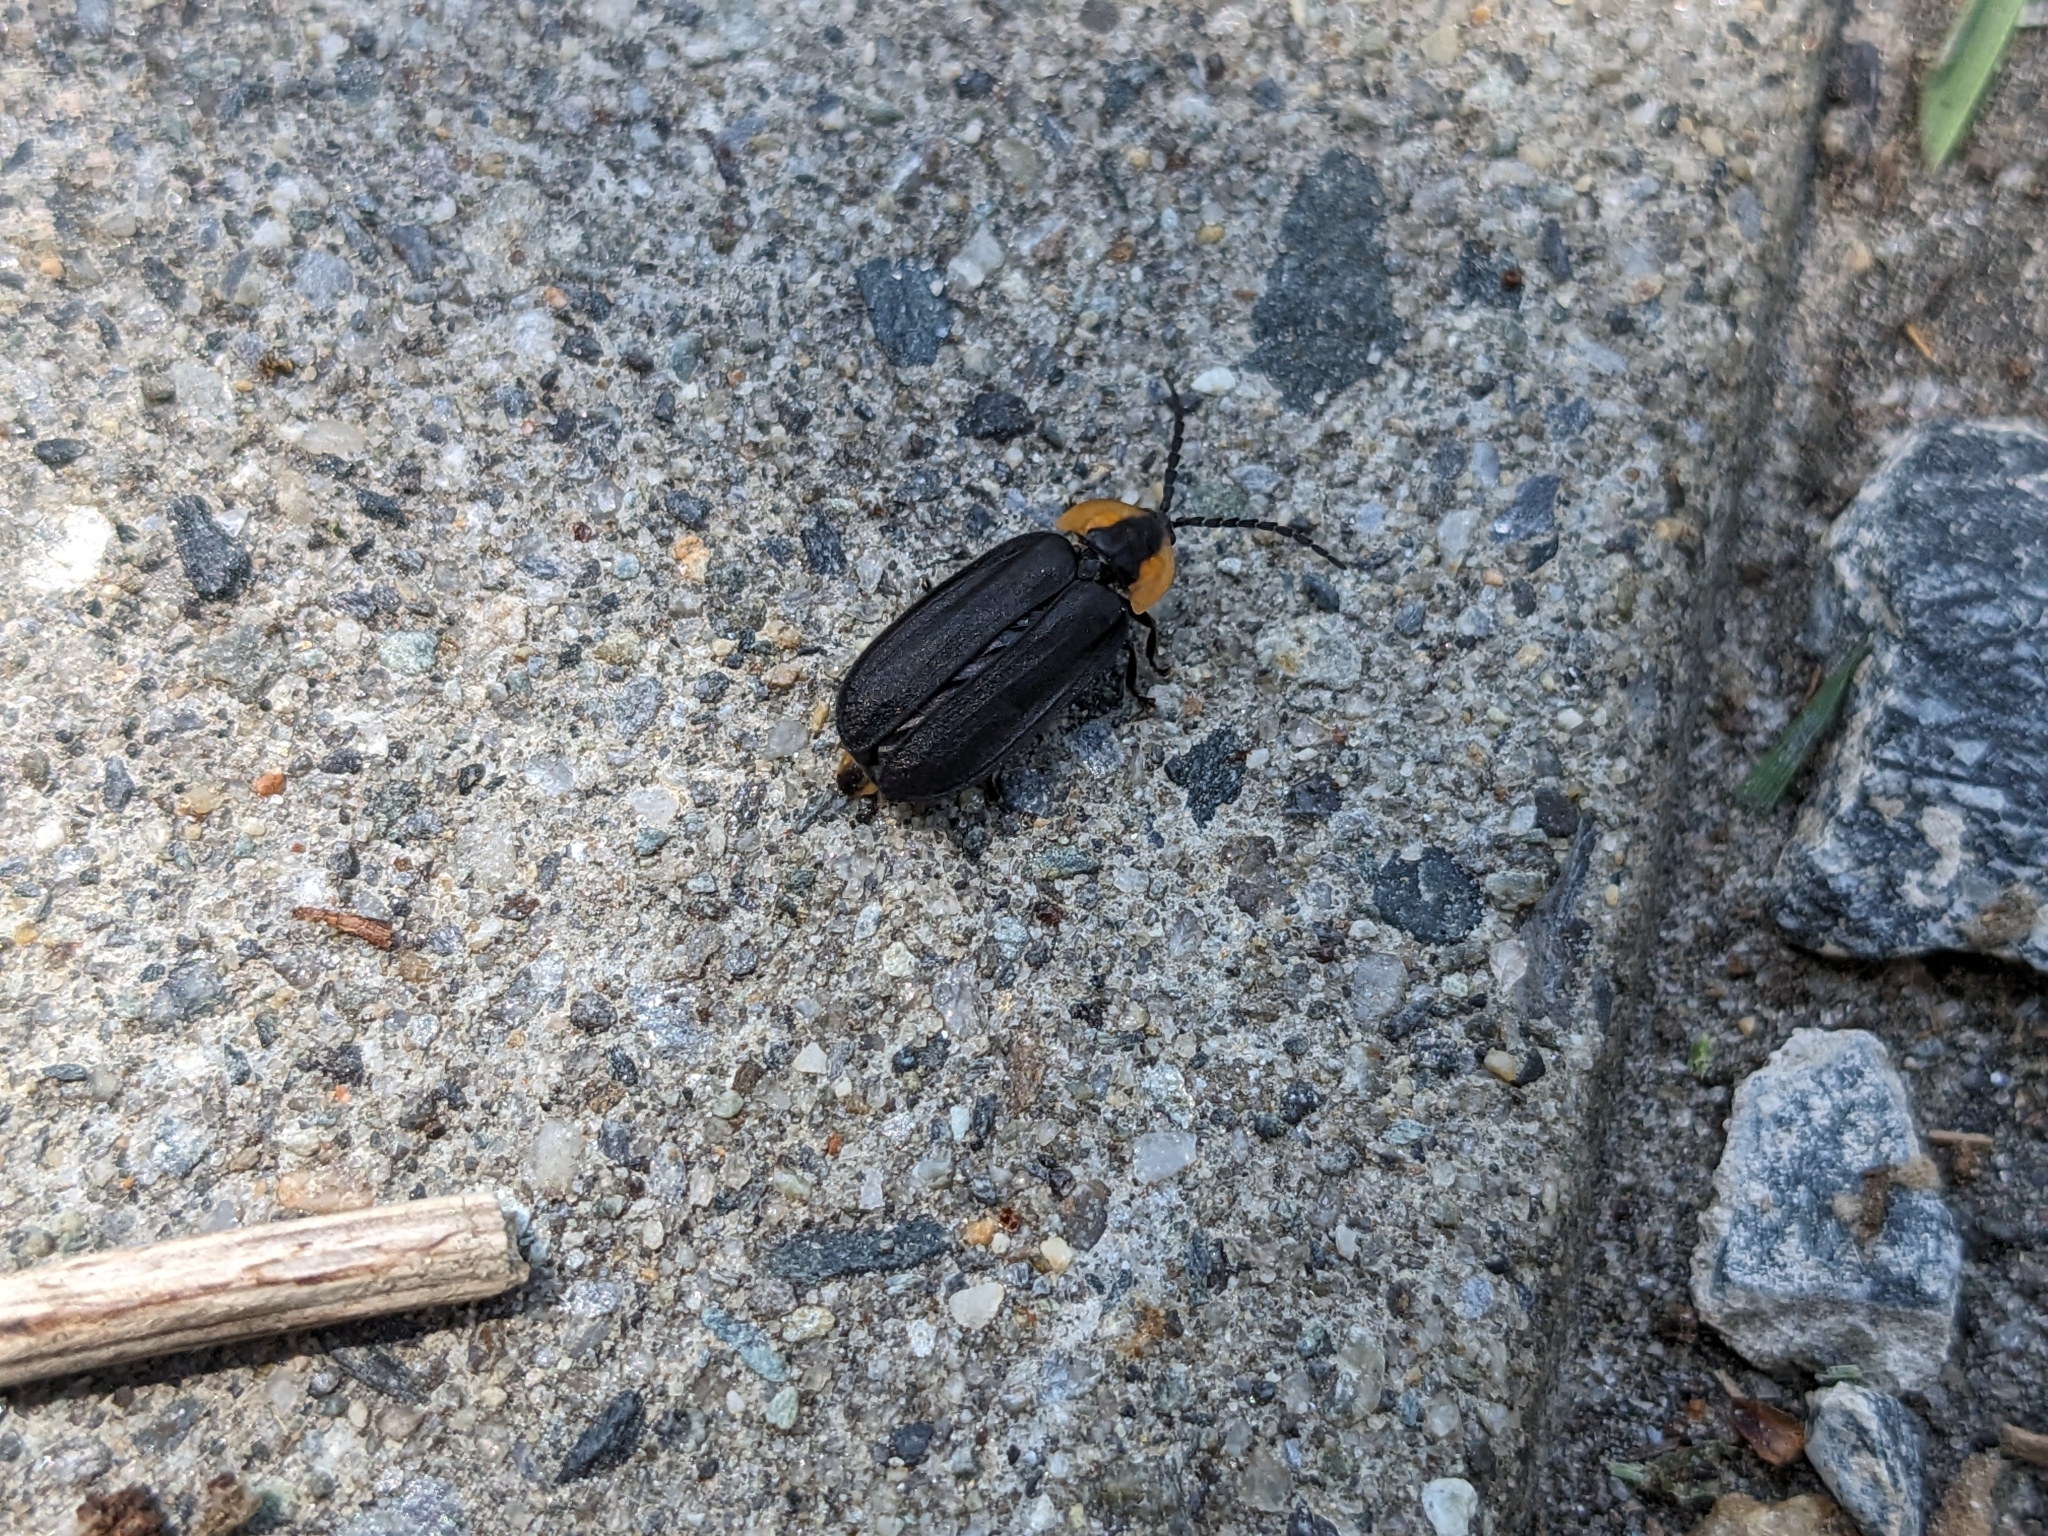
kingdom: Animalia
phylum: Arthropoda
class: Insecta
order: Coleoptera
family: Lampyridae
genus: Lucidota
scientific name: Lucidota atra
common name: Black firefly
